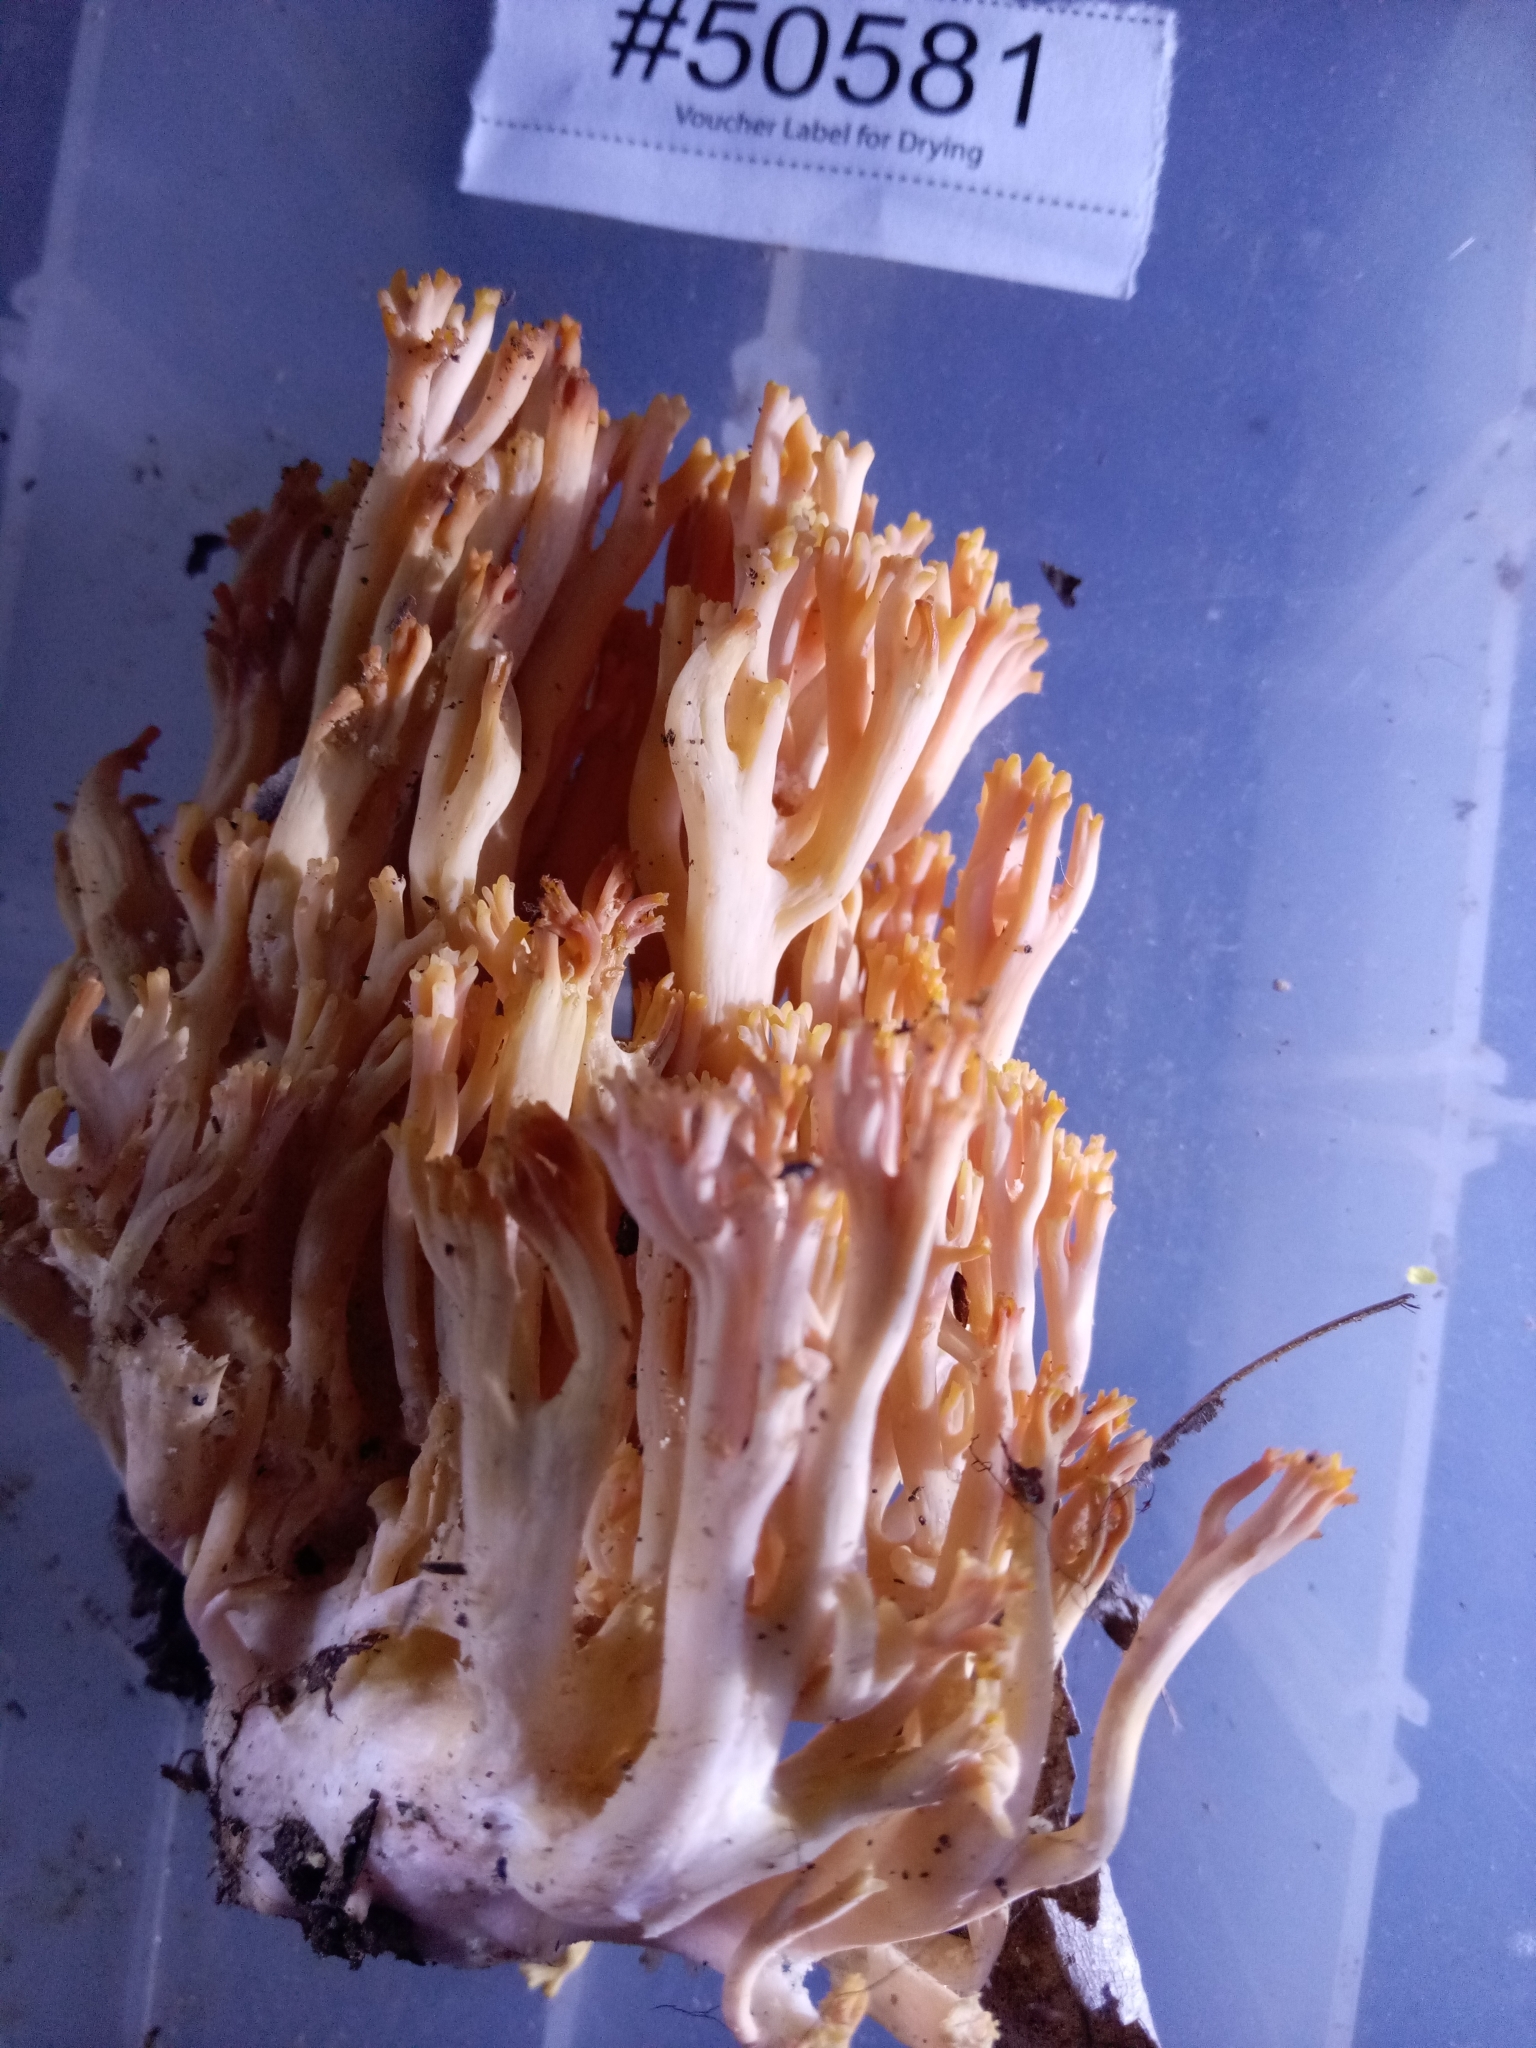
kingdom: Fungi
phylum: Basidiomycota
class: Agaricomycetes
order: Gomphales
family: Gomphaceae
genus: Ramaria
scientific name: Ramaria subbotrytis
